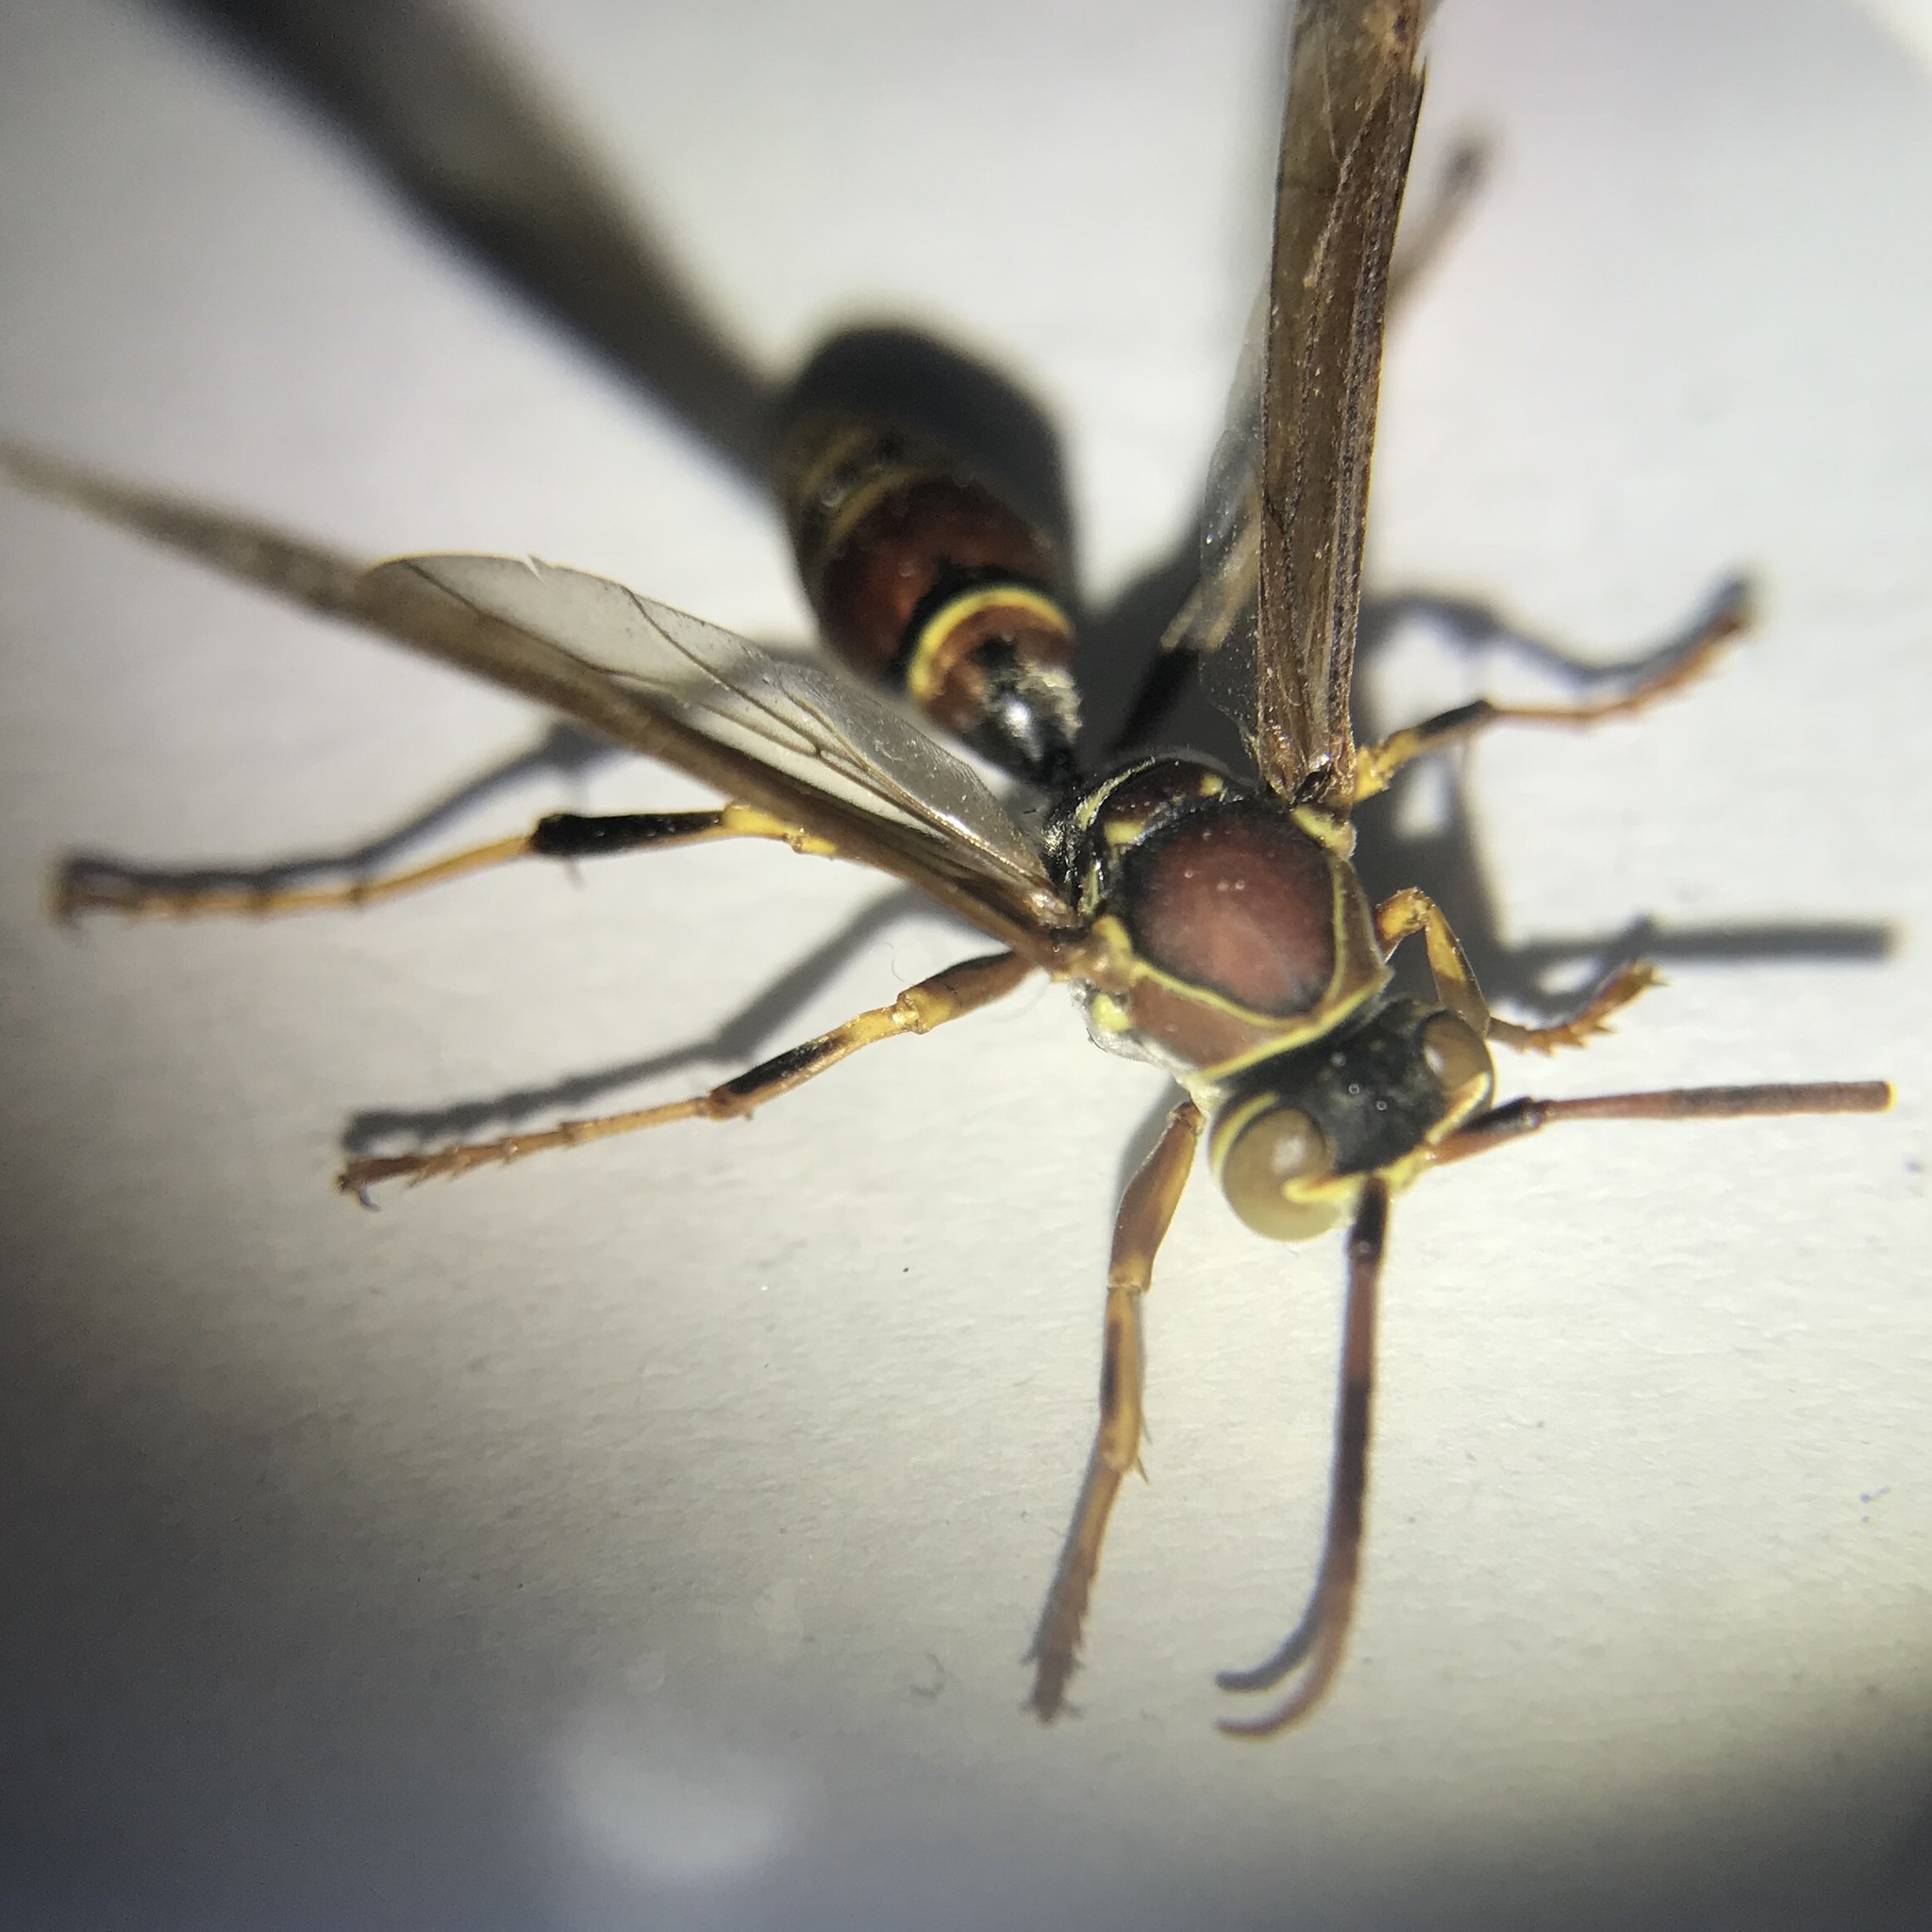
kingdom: Animalia
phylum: Arthropoda
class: Insecta
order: Hymenoptera
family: Eumenidae
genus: Polistes
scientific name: Polistes exclamans
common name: Paper wasp
